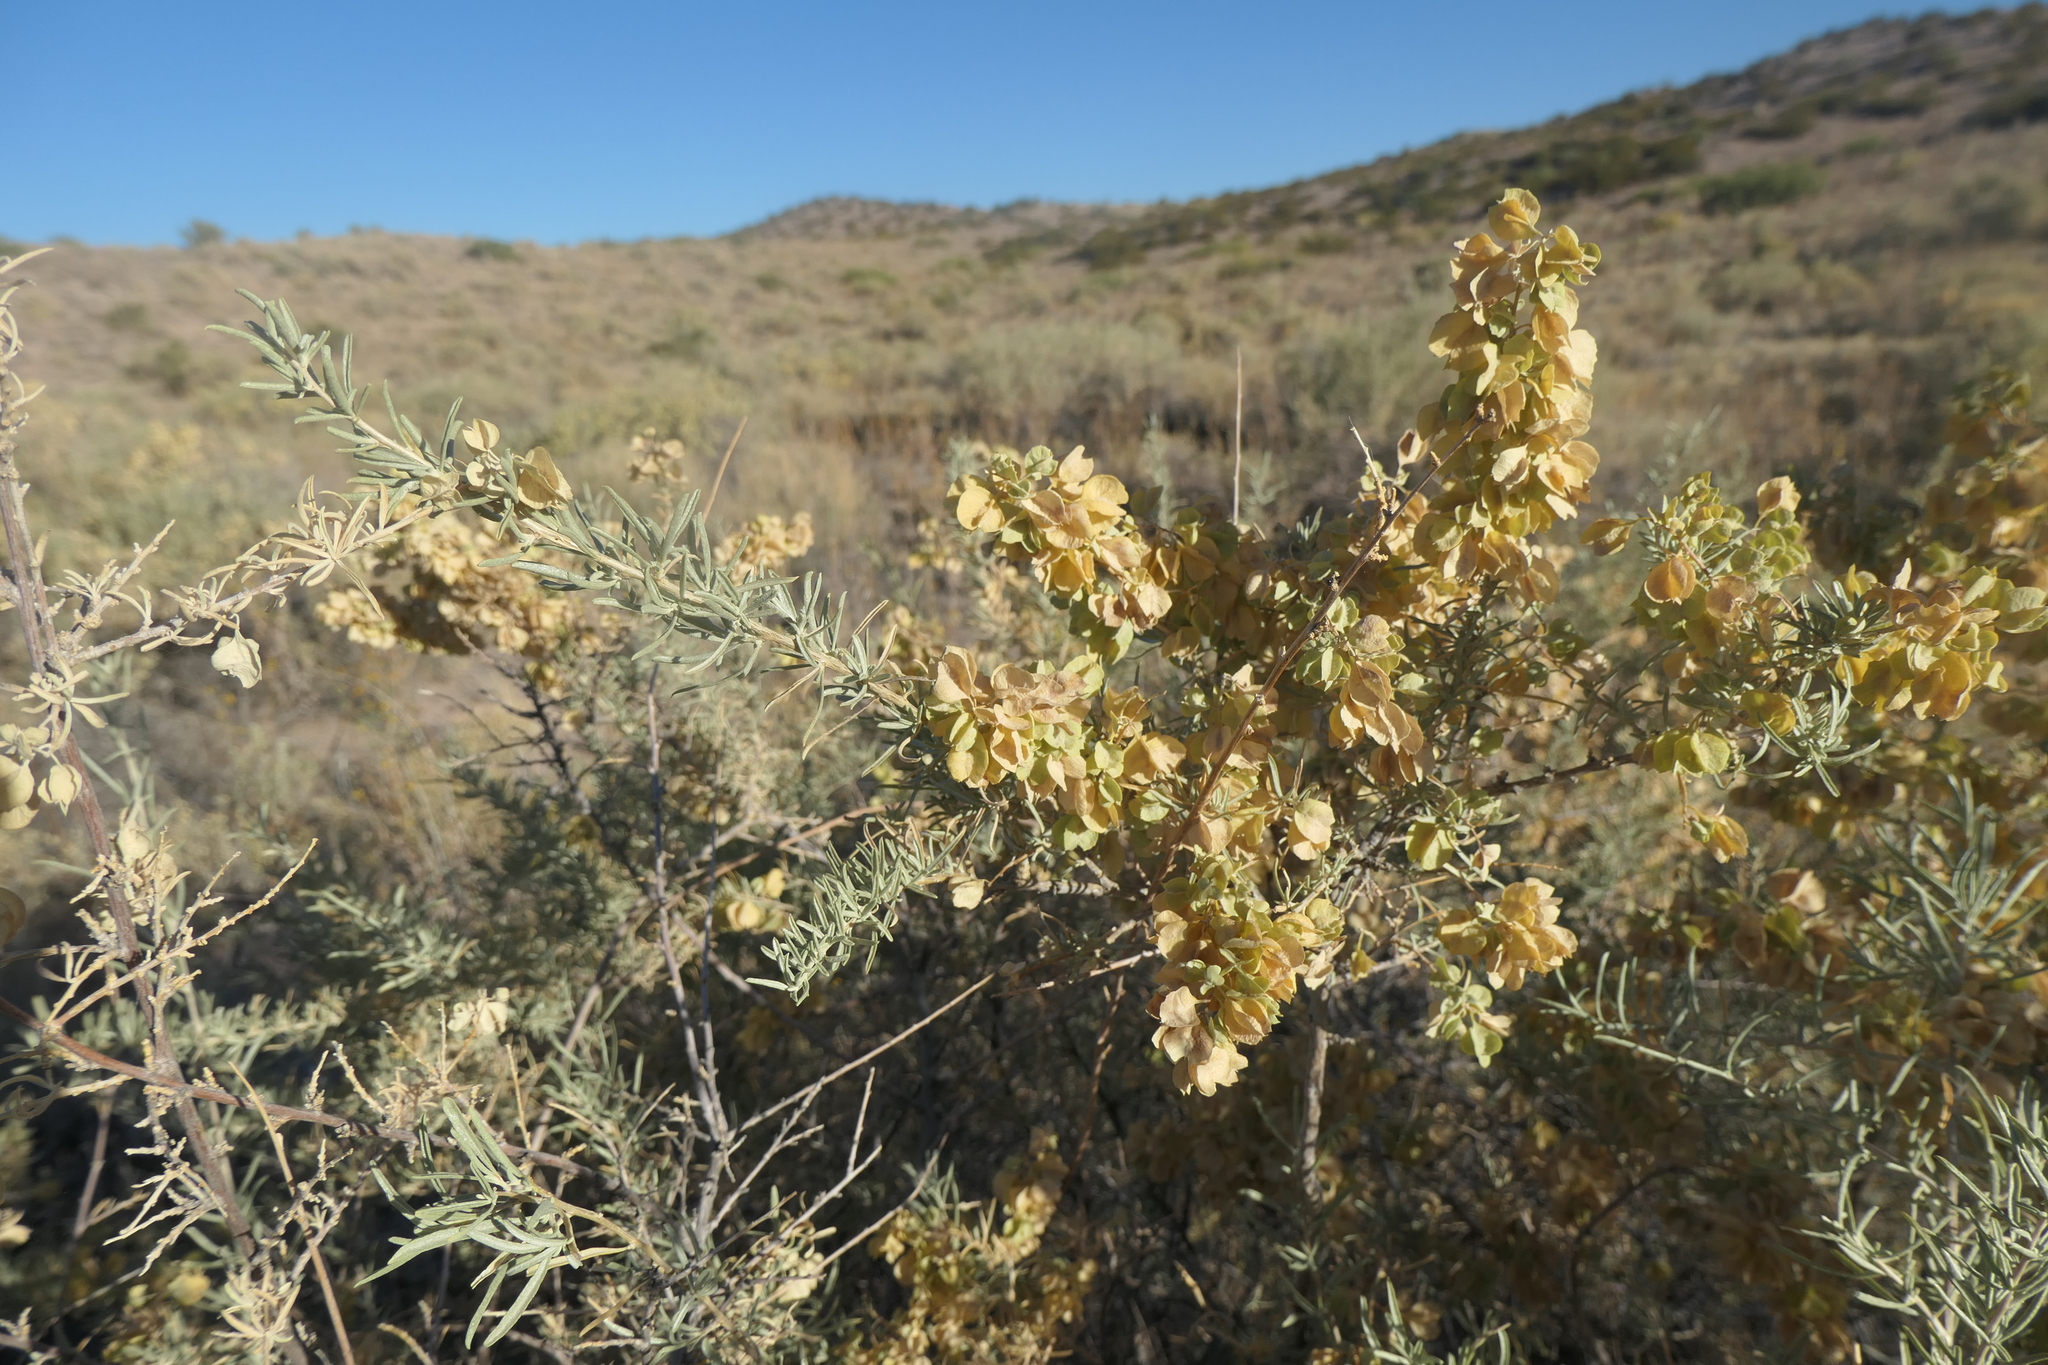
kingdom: Plantae
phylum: Tracheophyta
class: Magnoliopsida
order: Caryophyllales
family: Amaranthaceae
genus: Atriplex
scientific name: Atriplex canescens
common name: Four-wing saltbush
